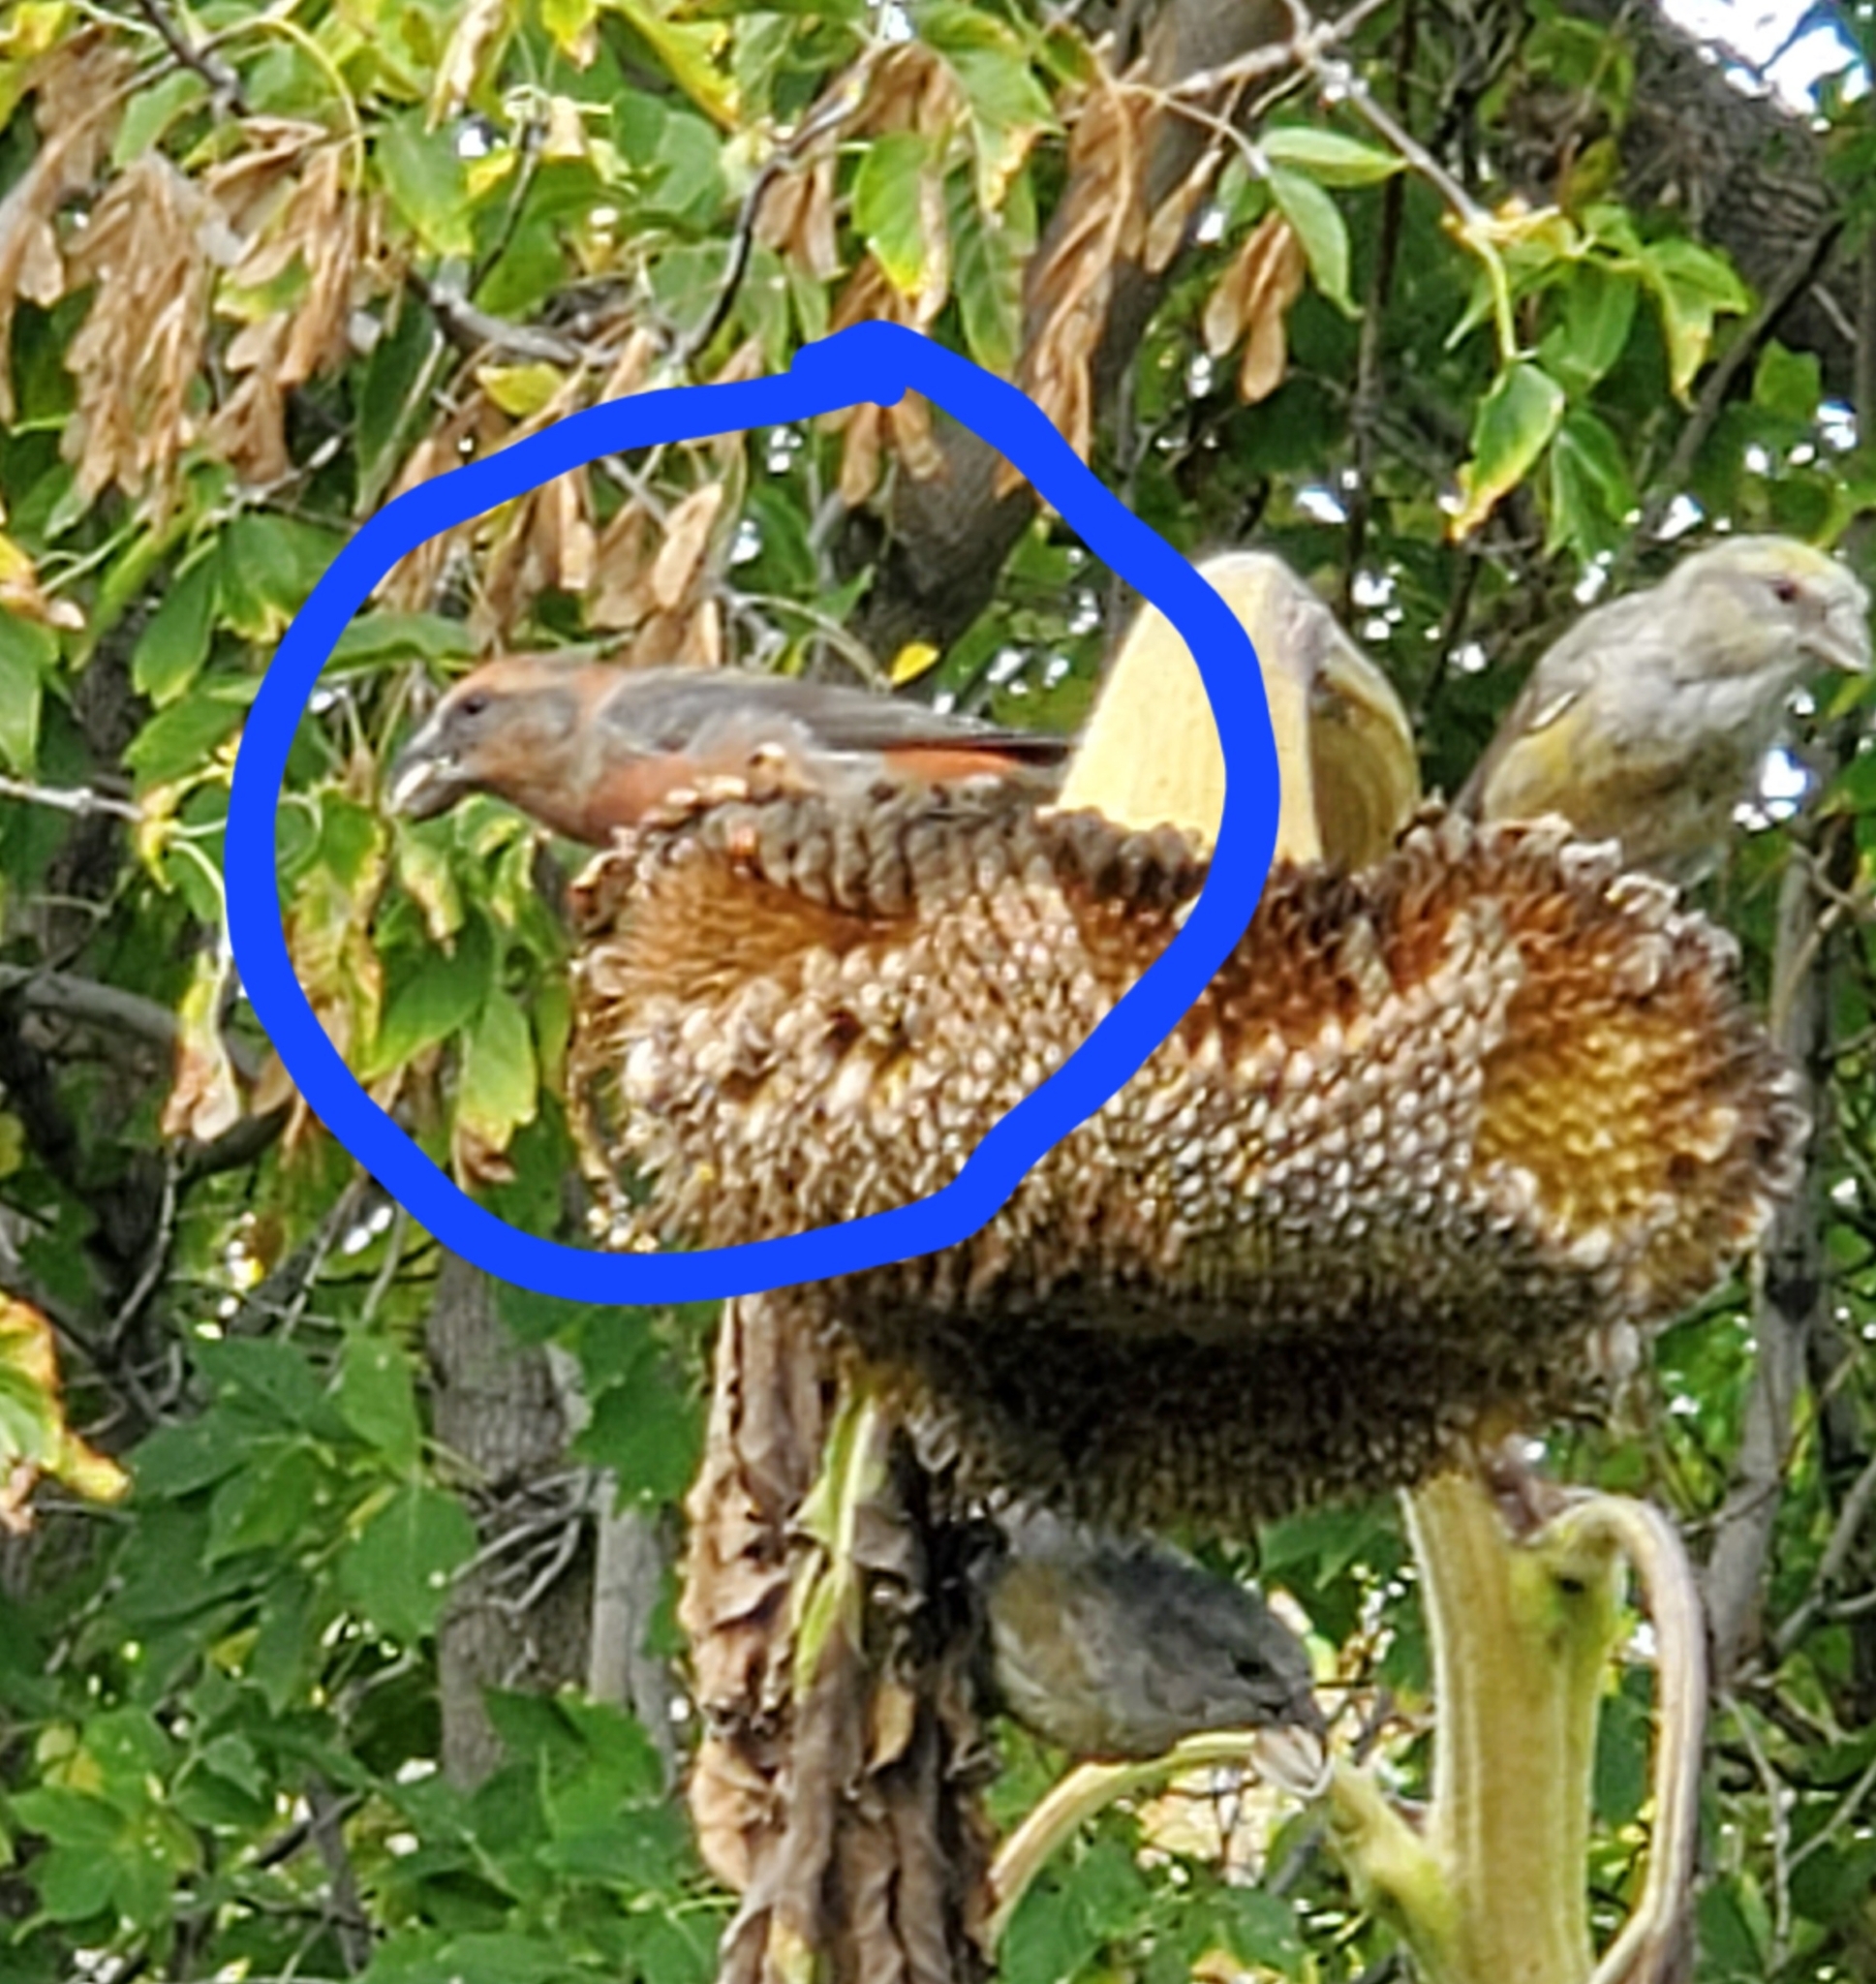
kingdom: Animalia
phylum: Chordata
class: Aves
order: Passeriformes
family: Fringillidae
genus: Loxia
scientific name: Loxia curvirostra
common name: Red crossbill
